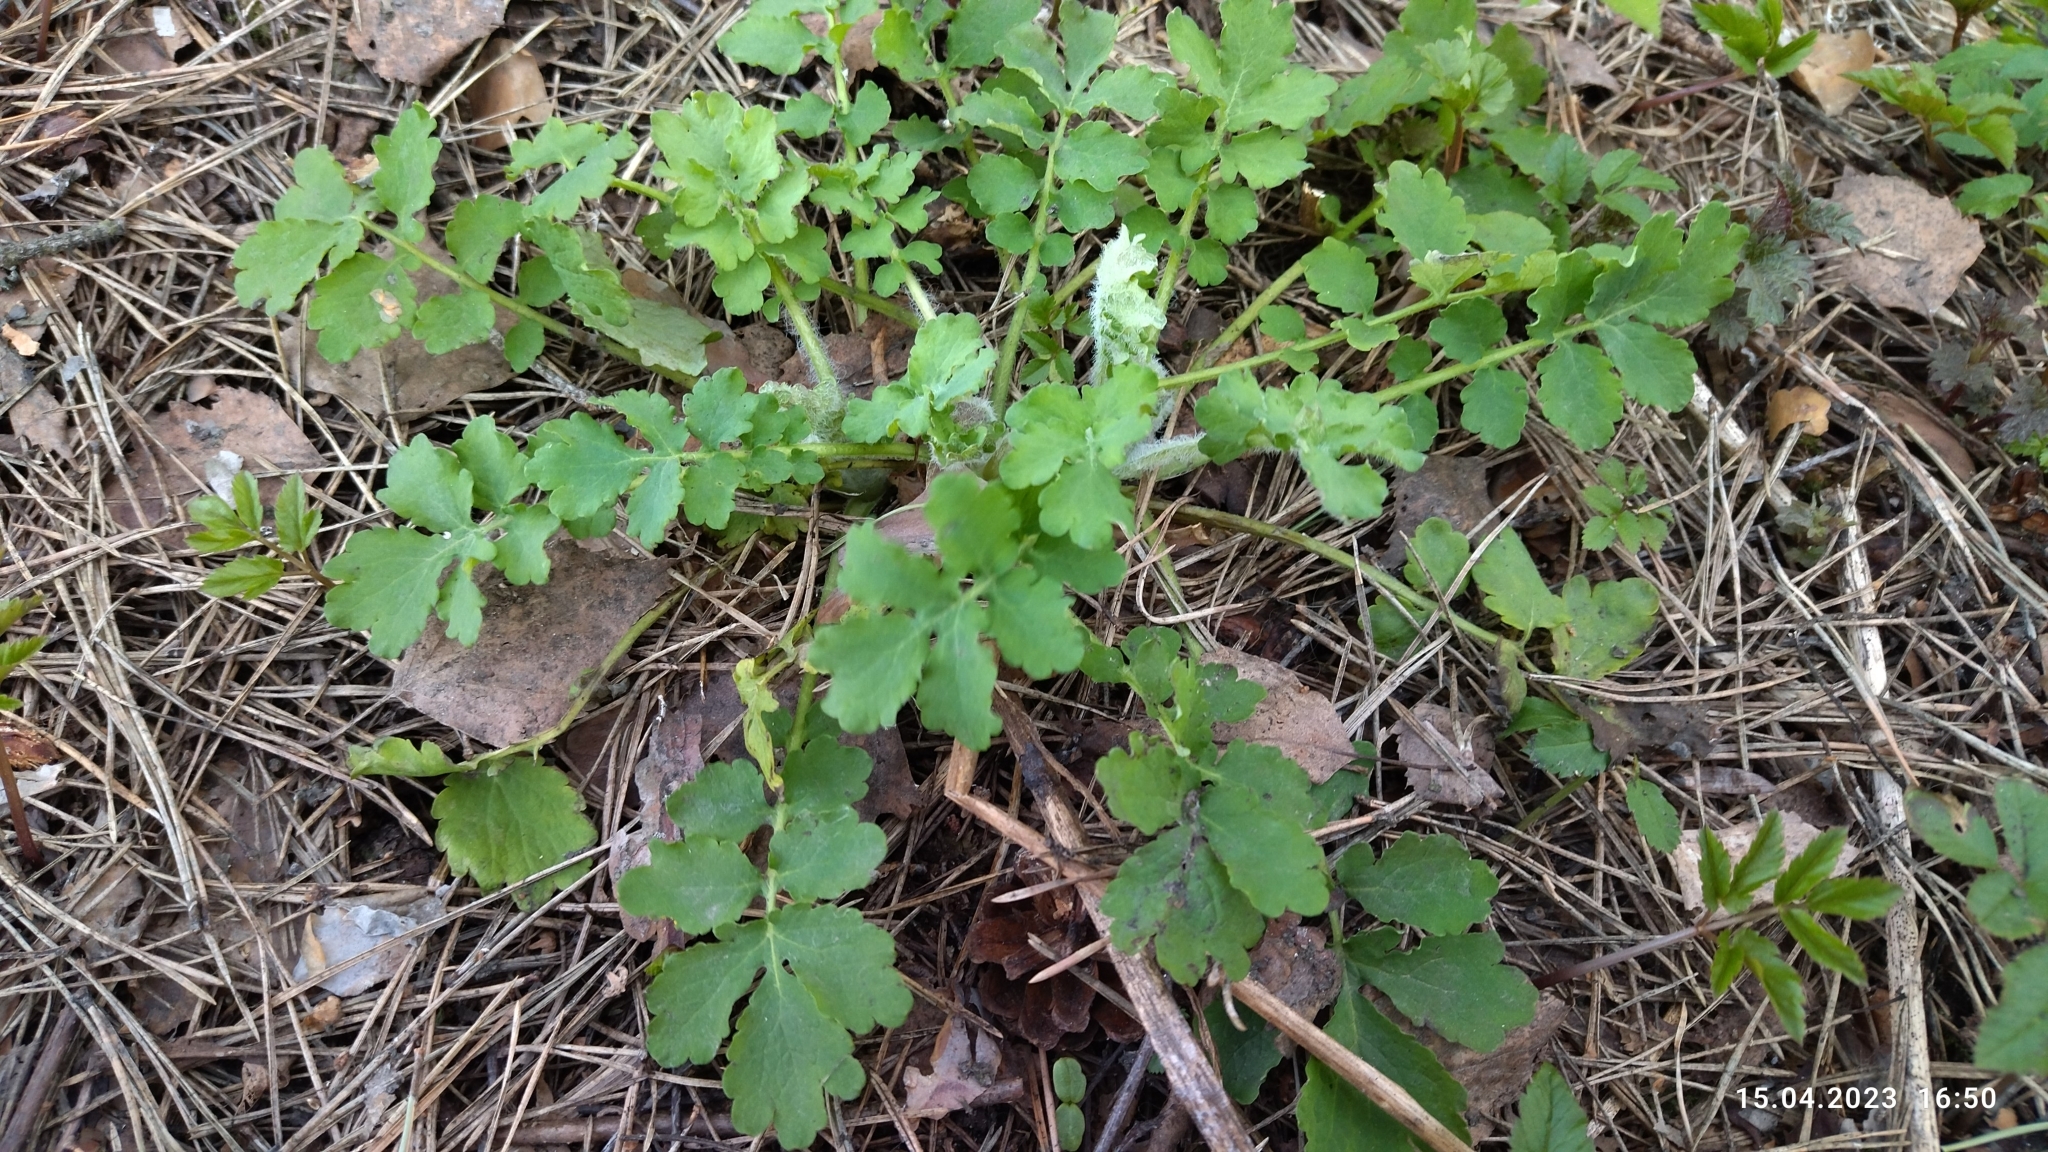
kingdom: Plantae
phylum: Tracheophyta
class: Magnoliopsida
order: Ranunculales
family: Papaveraceae
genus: Chelidonium
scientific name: Chelidonium majus
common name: Greater celandine
